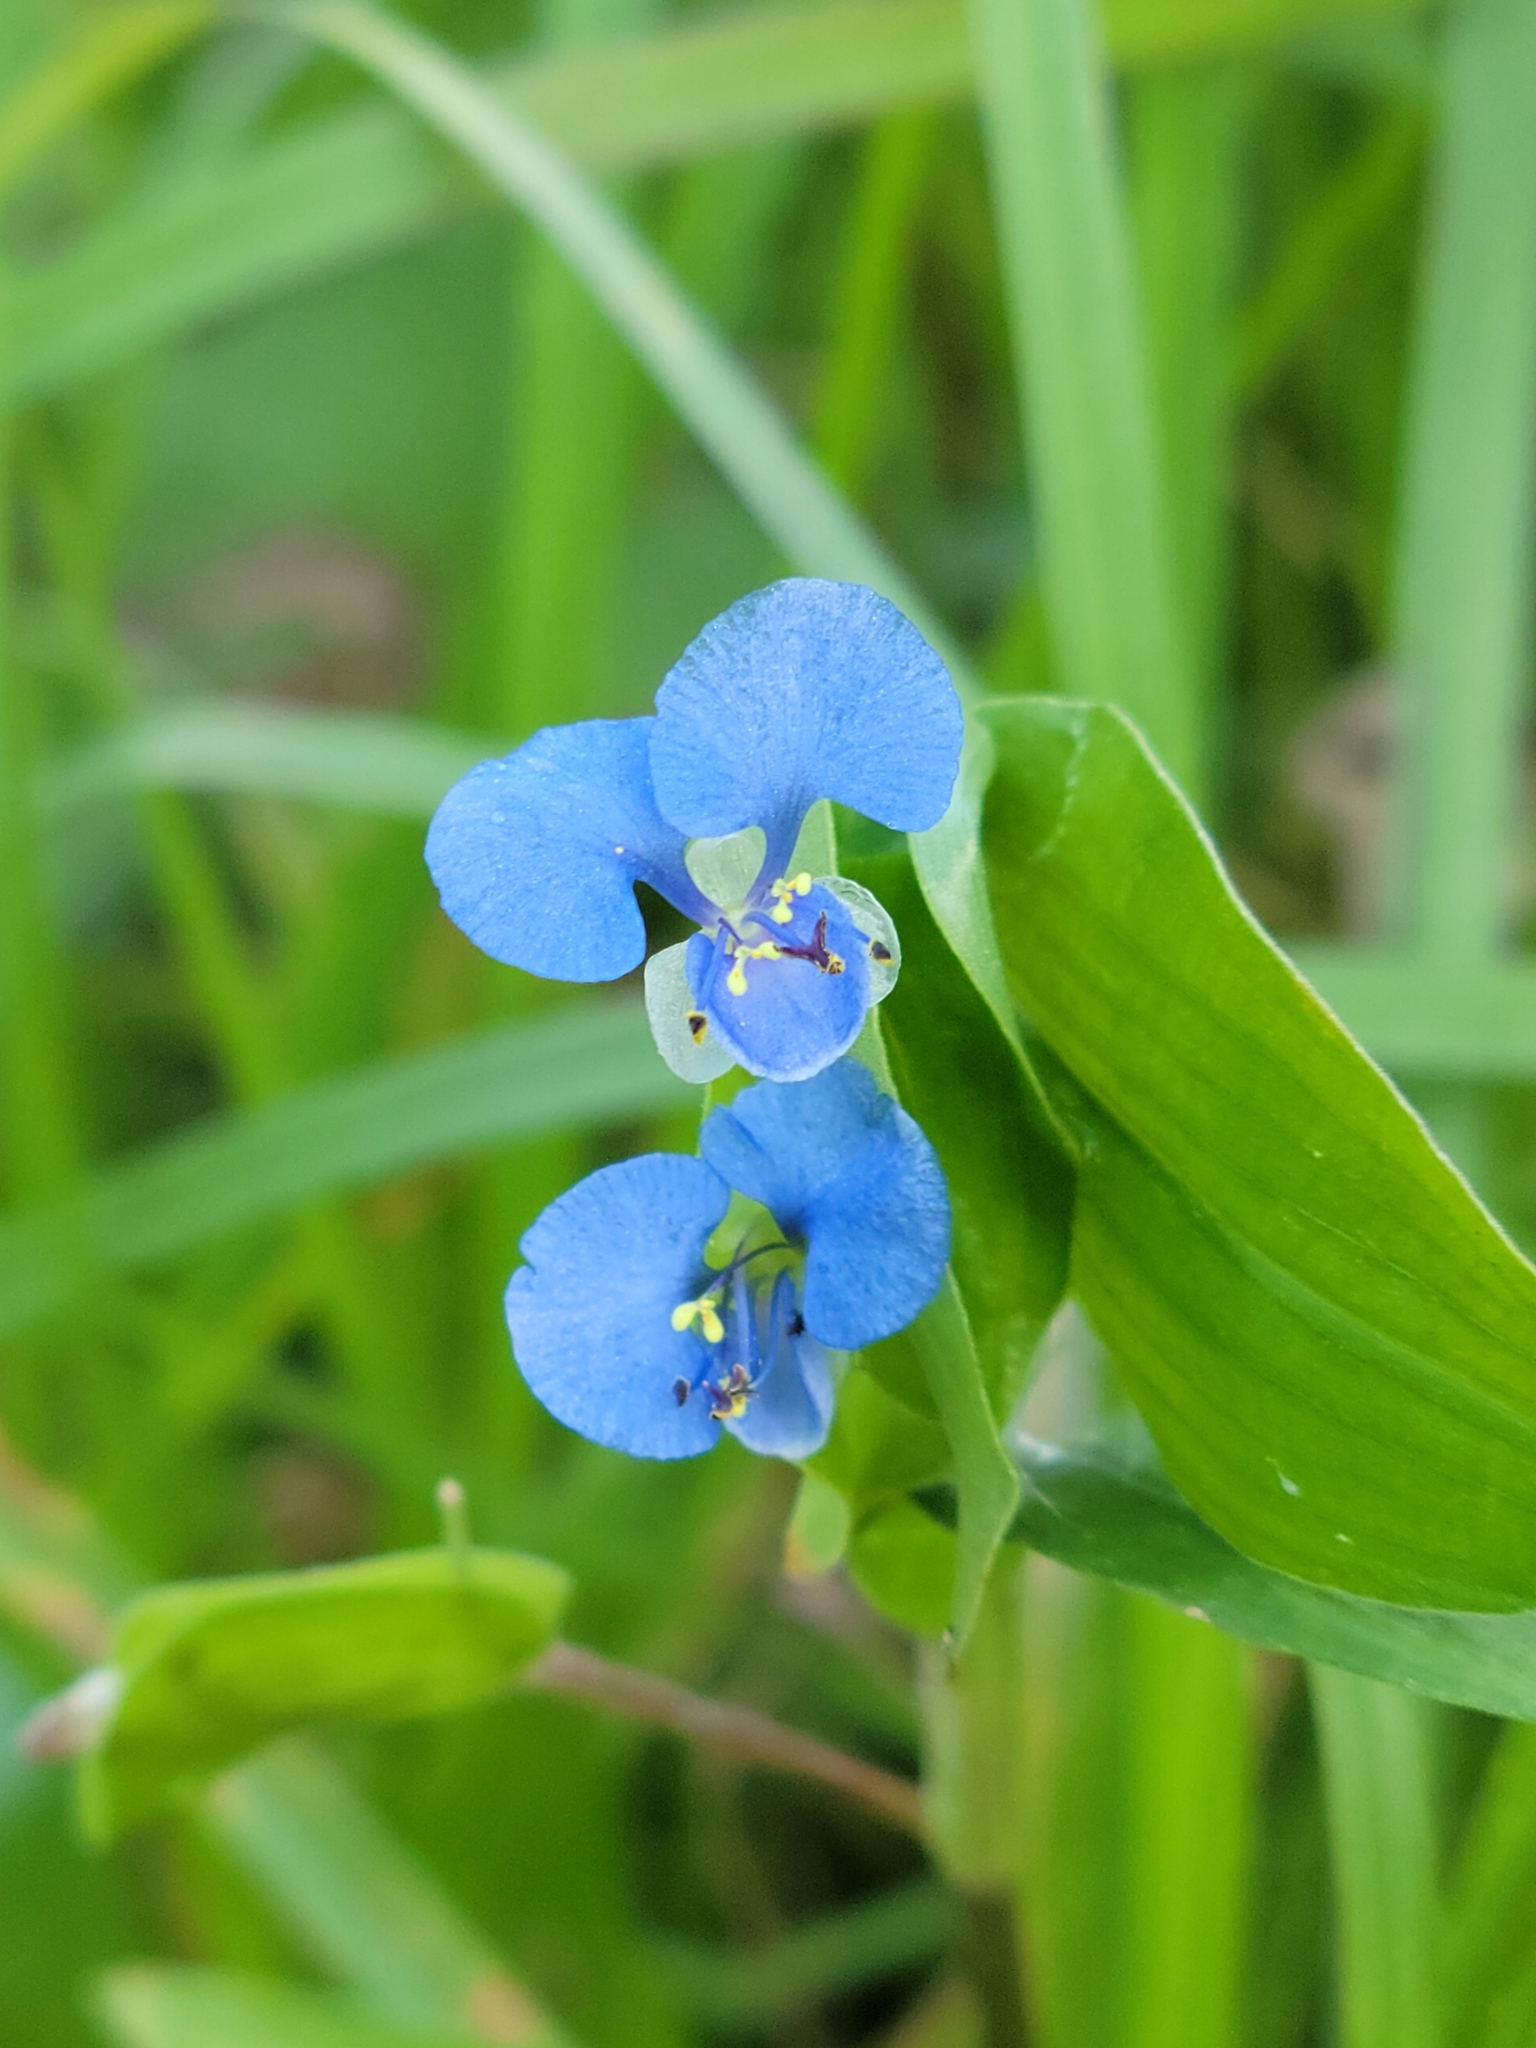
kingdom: Plantae
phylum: Tracheophyta
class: Liliopsida
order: Commelinales
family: Commelinaceae
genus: Commelina
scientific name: Commelina diffusa
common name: Climbing dayflower
